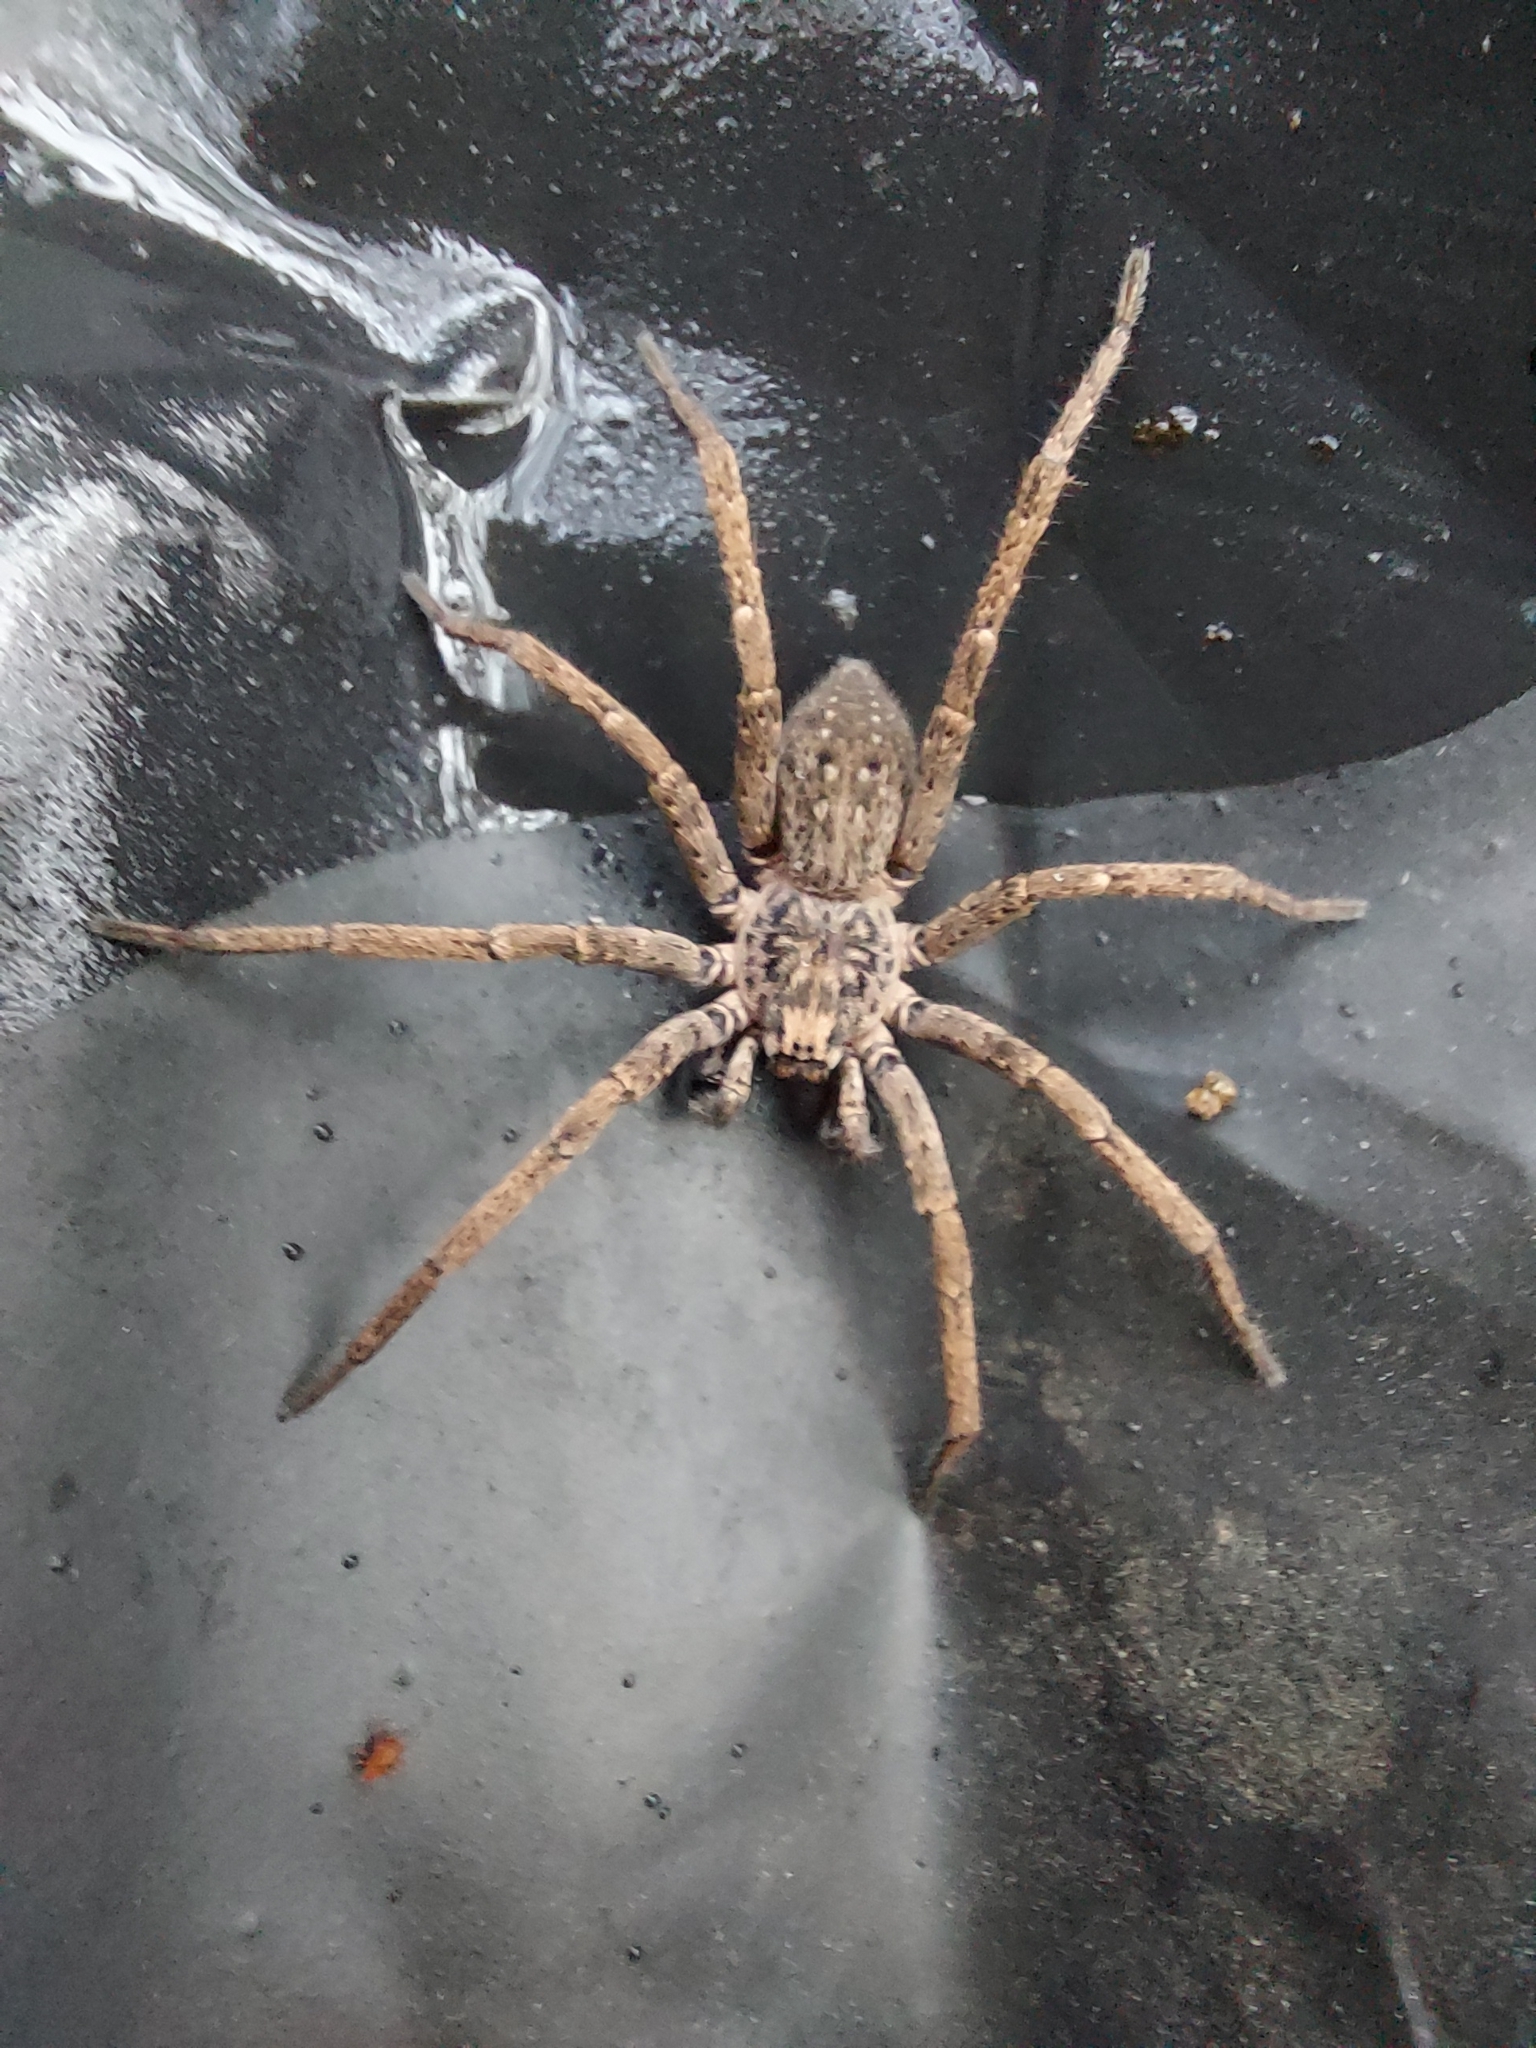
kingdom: Animalia
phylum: Arthropoda
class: Arachnida
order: Araneae
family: Miturgidae
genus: Mituliodon
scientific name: Mituliodon tarantulinus
